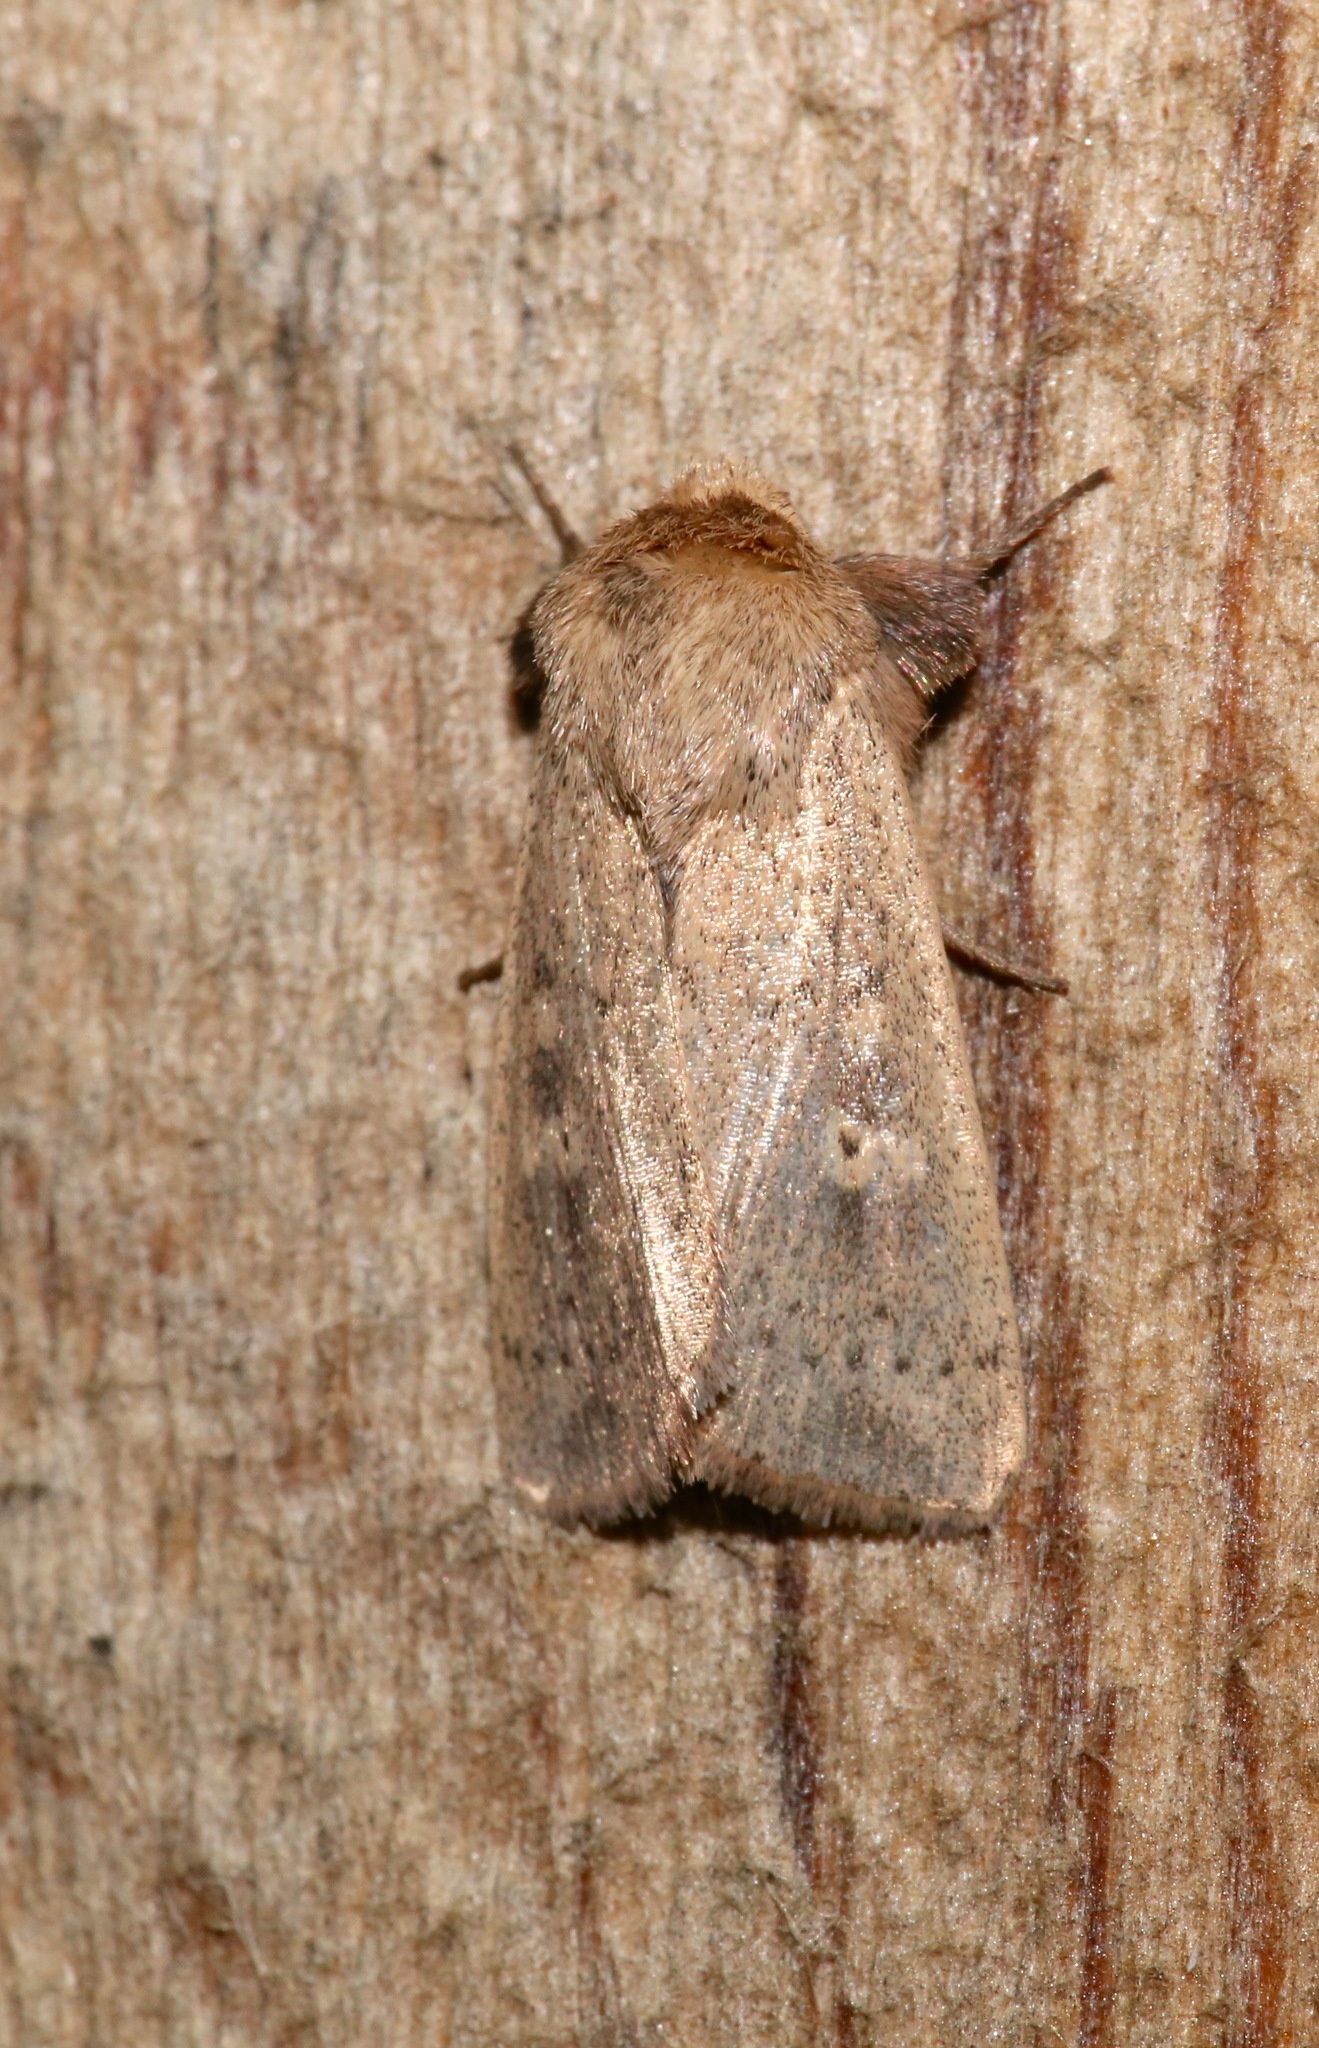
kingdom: Animalia
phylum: Arthropoda
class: Insecta
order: Lepidoptera
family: Noctuidae
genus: Leucania
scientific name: Leucania ursula
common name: Ursula wainscot
